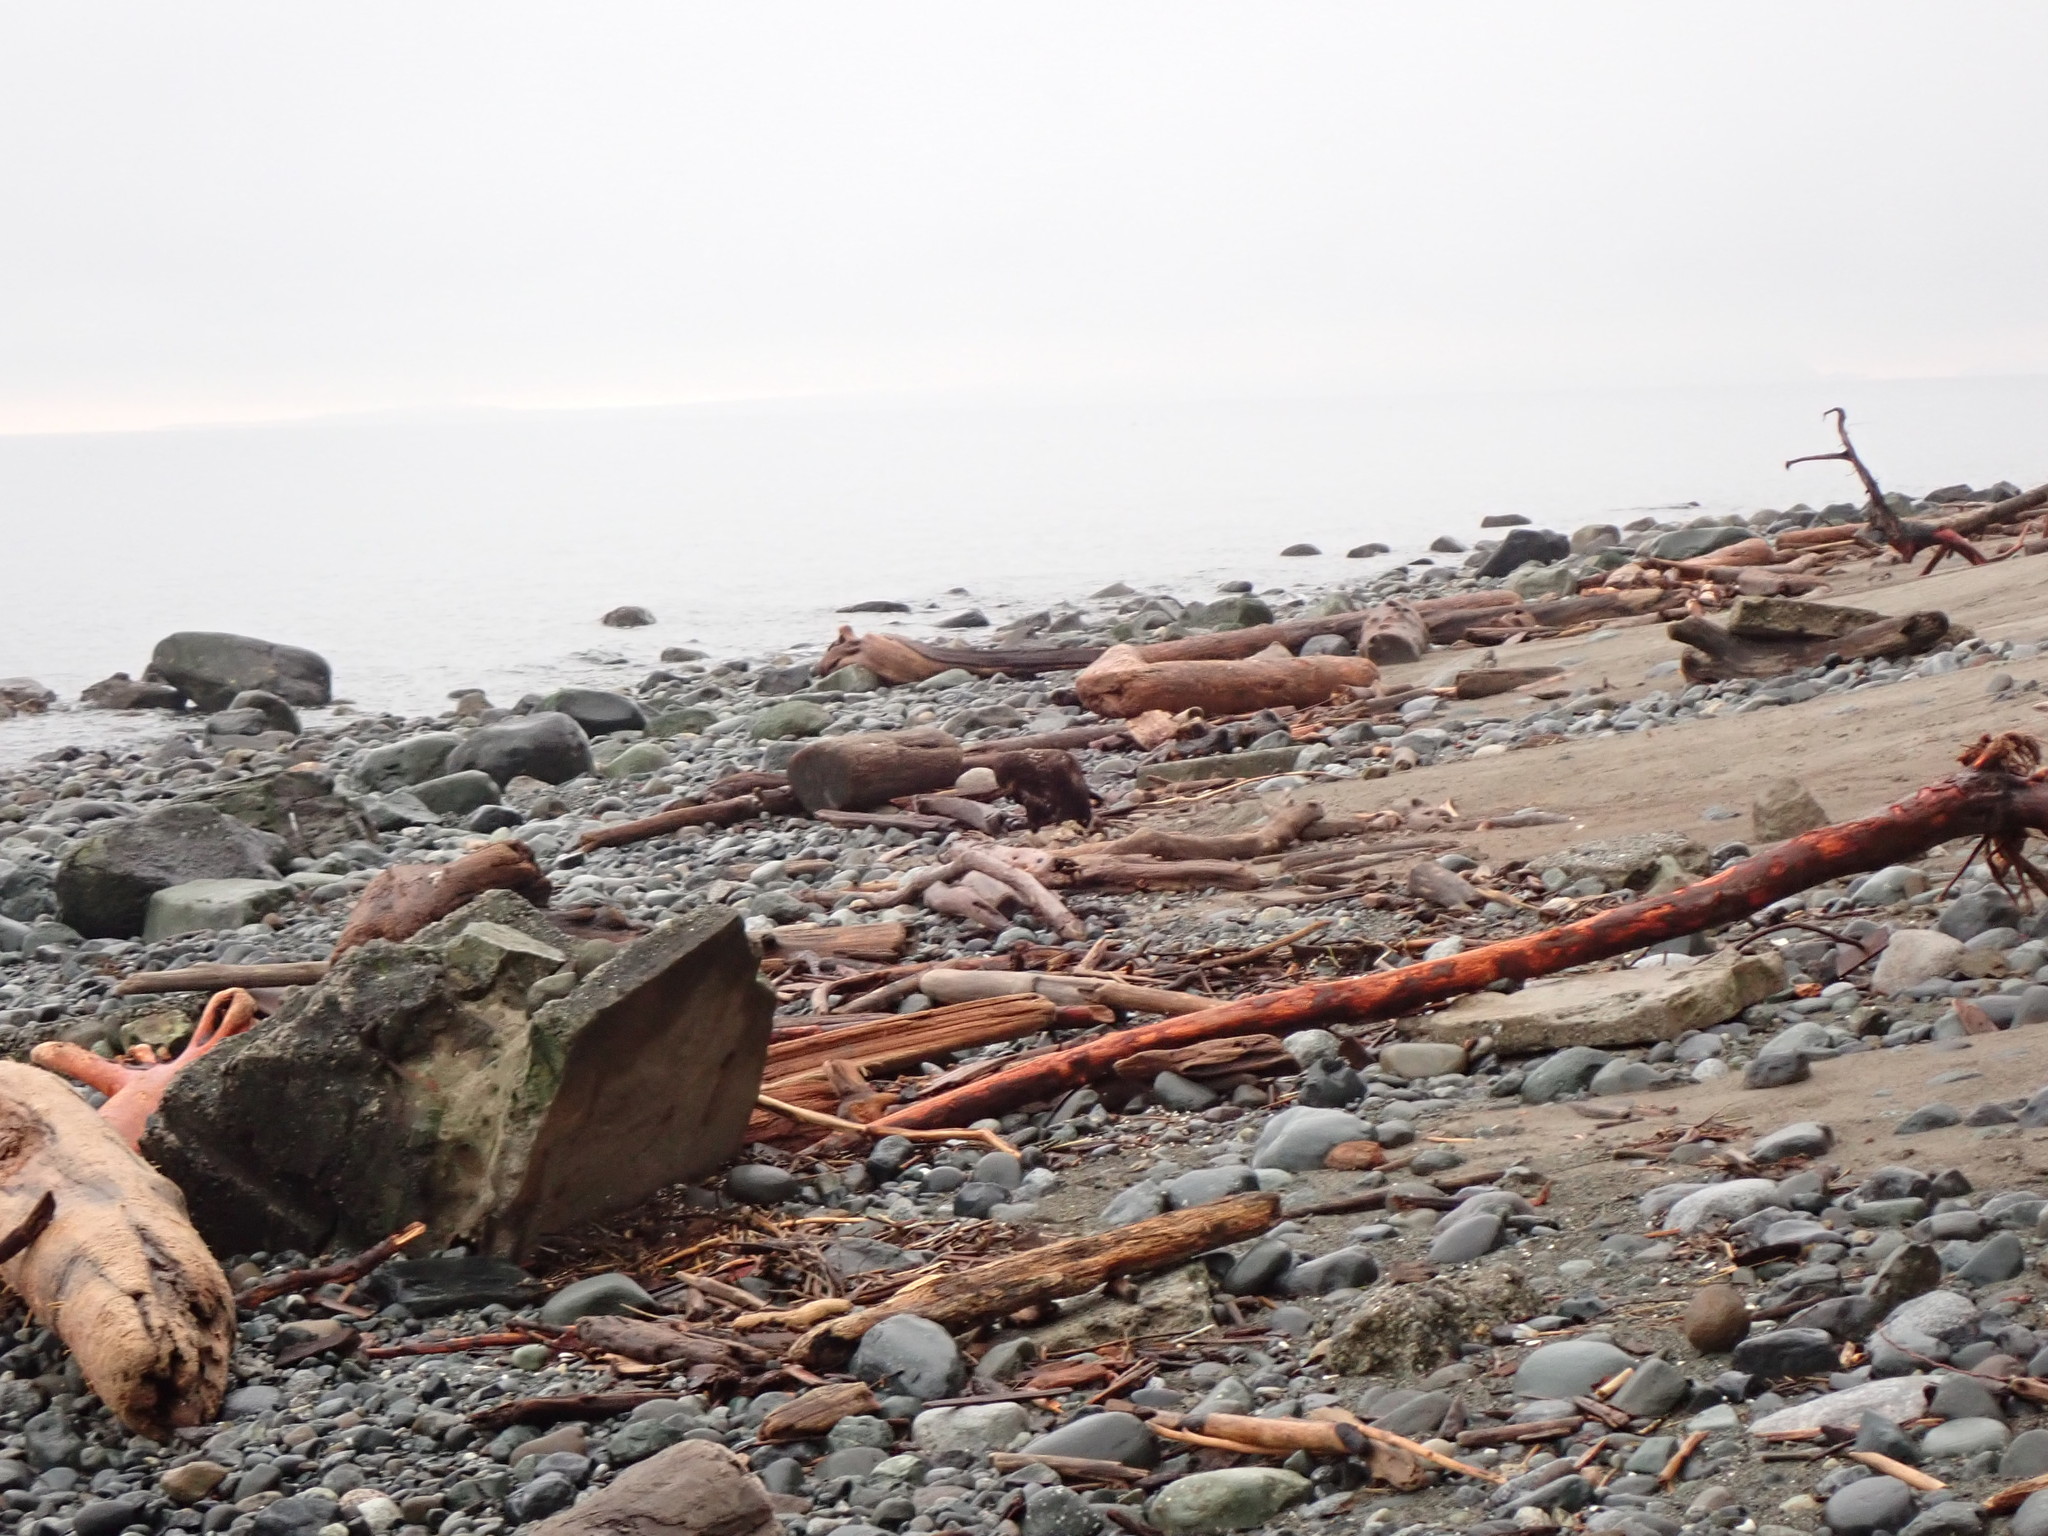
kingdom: Animalia
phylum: Chordata
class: Aves
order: Accipitriformes
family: Accipitridae
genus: Haliaeetus
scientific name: Haliaeetus leucocephalus
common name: Bald eagle
